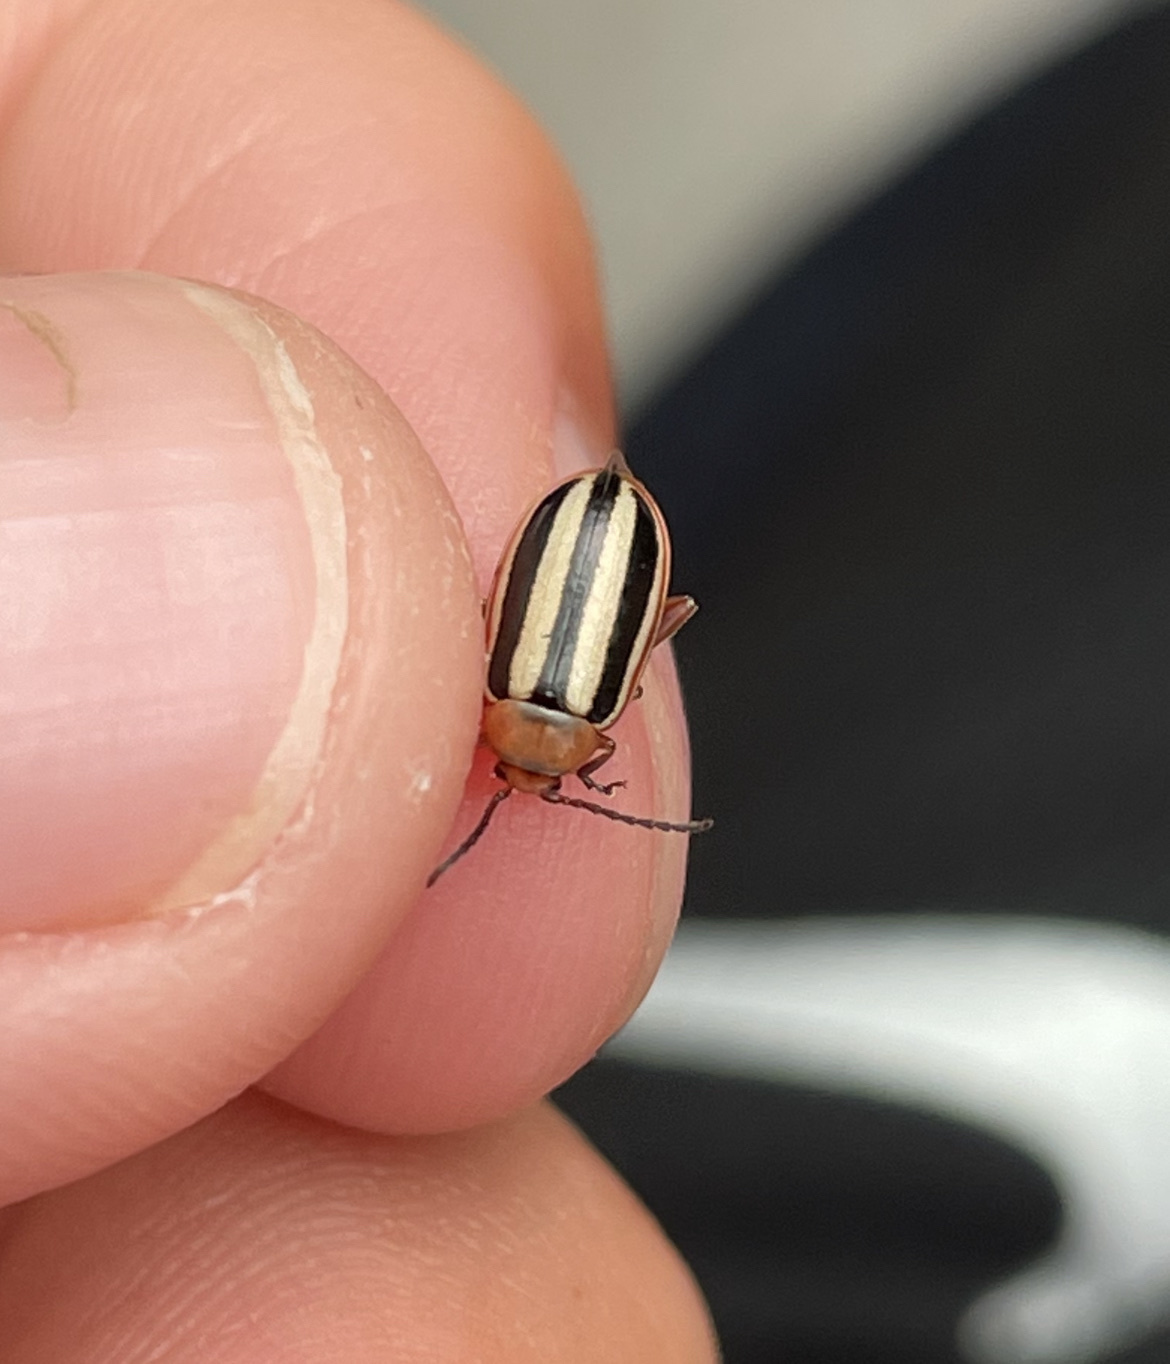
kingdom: Animalia
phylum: Arthropoda
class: Insecta
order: Coleoptera
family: Chrysomelidae
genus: Disonycha
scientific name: Disonycha leptolineata
